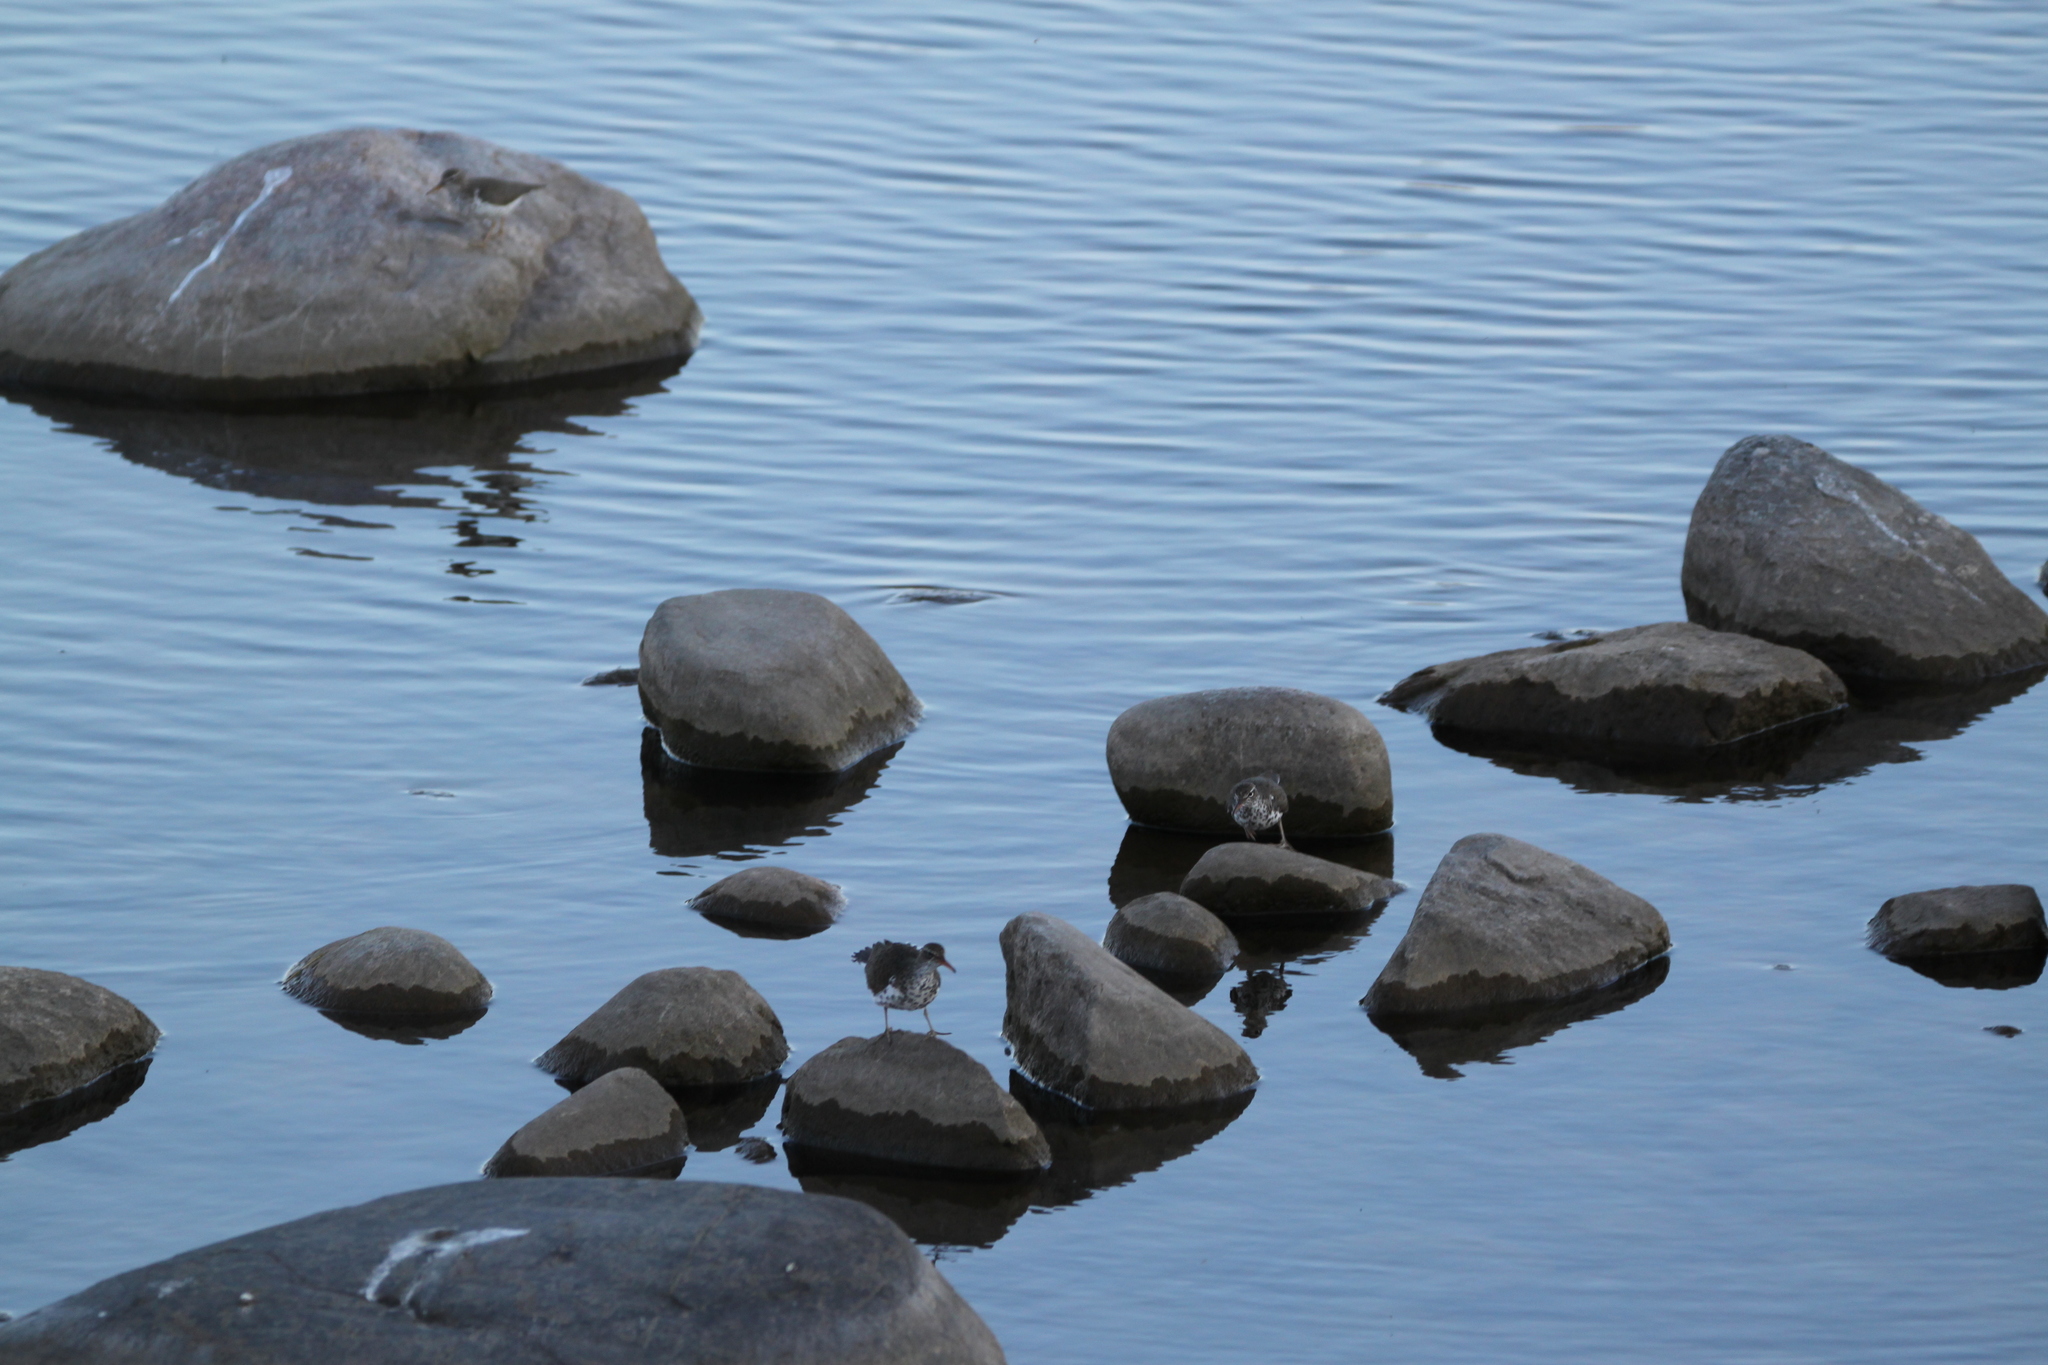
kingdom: Animalia
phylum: Chordata
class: Aves
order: Charadriiformes
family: Scolopacidae
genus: Actitis
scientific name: Actitis macularius
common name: Spotted sandpiper
